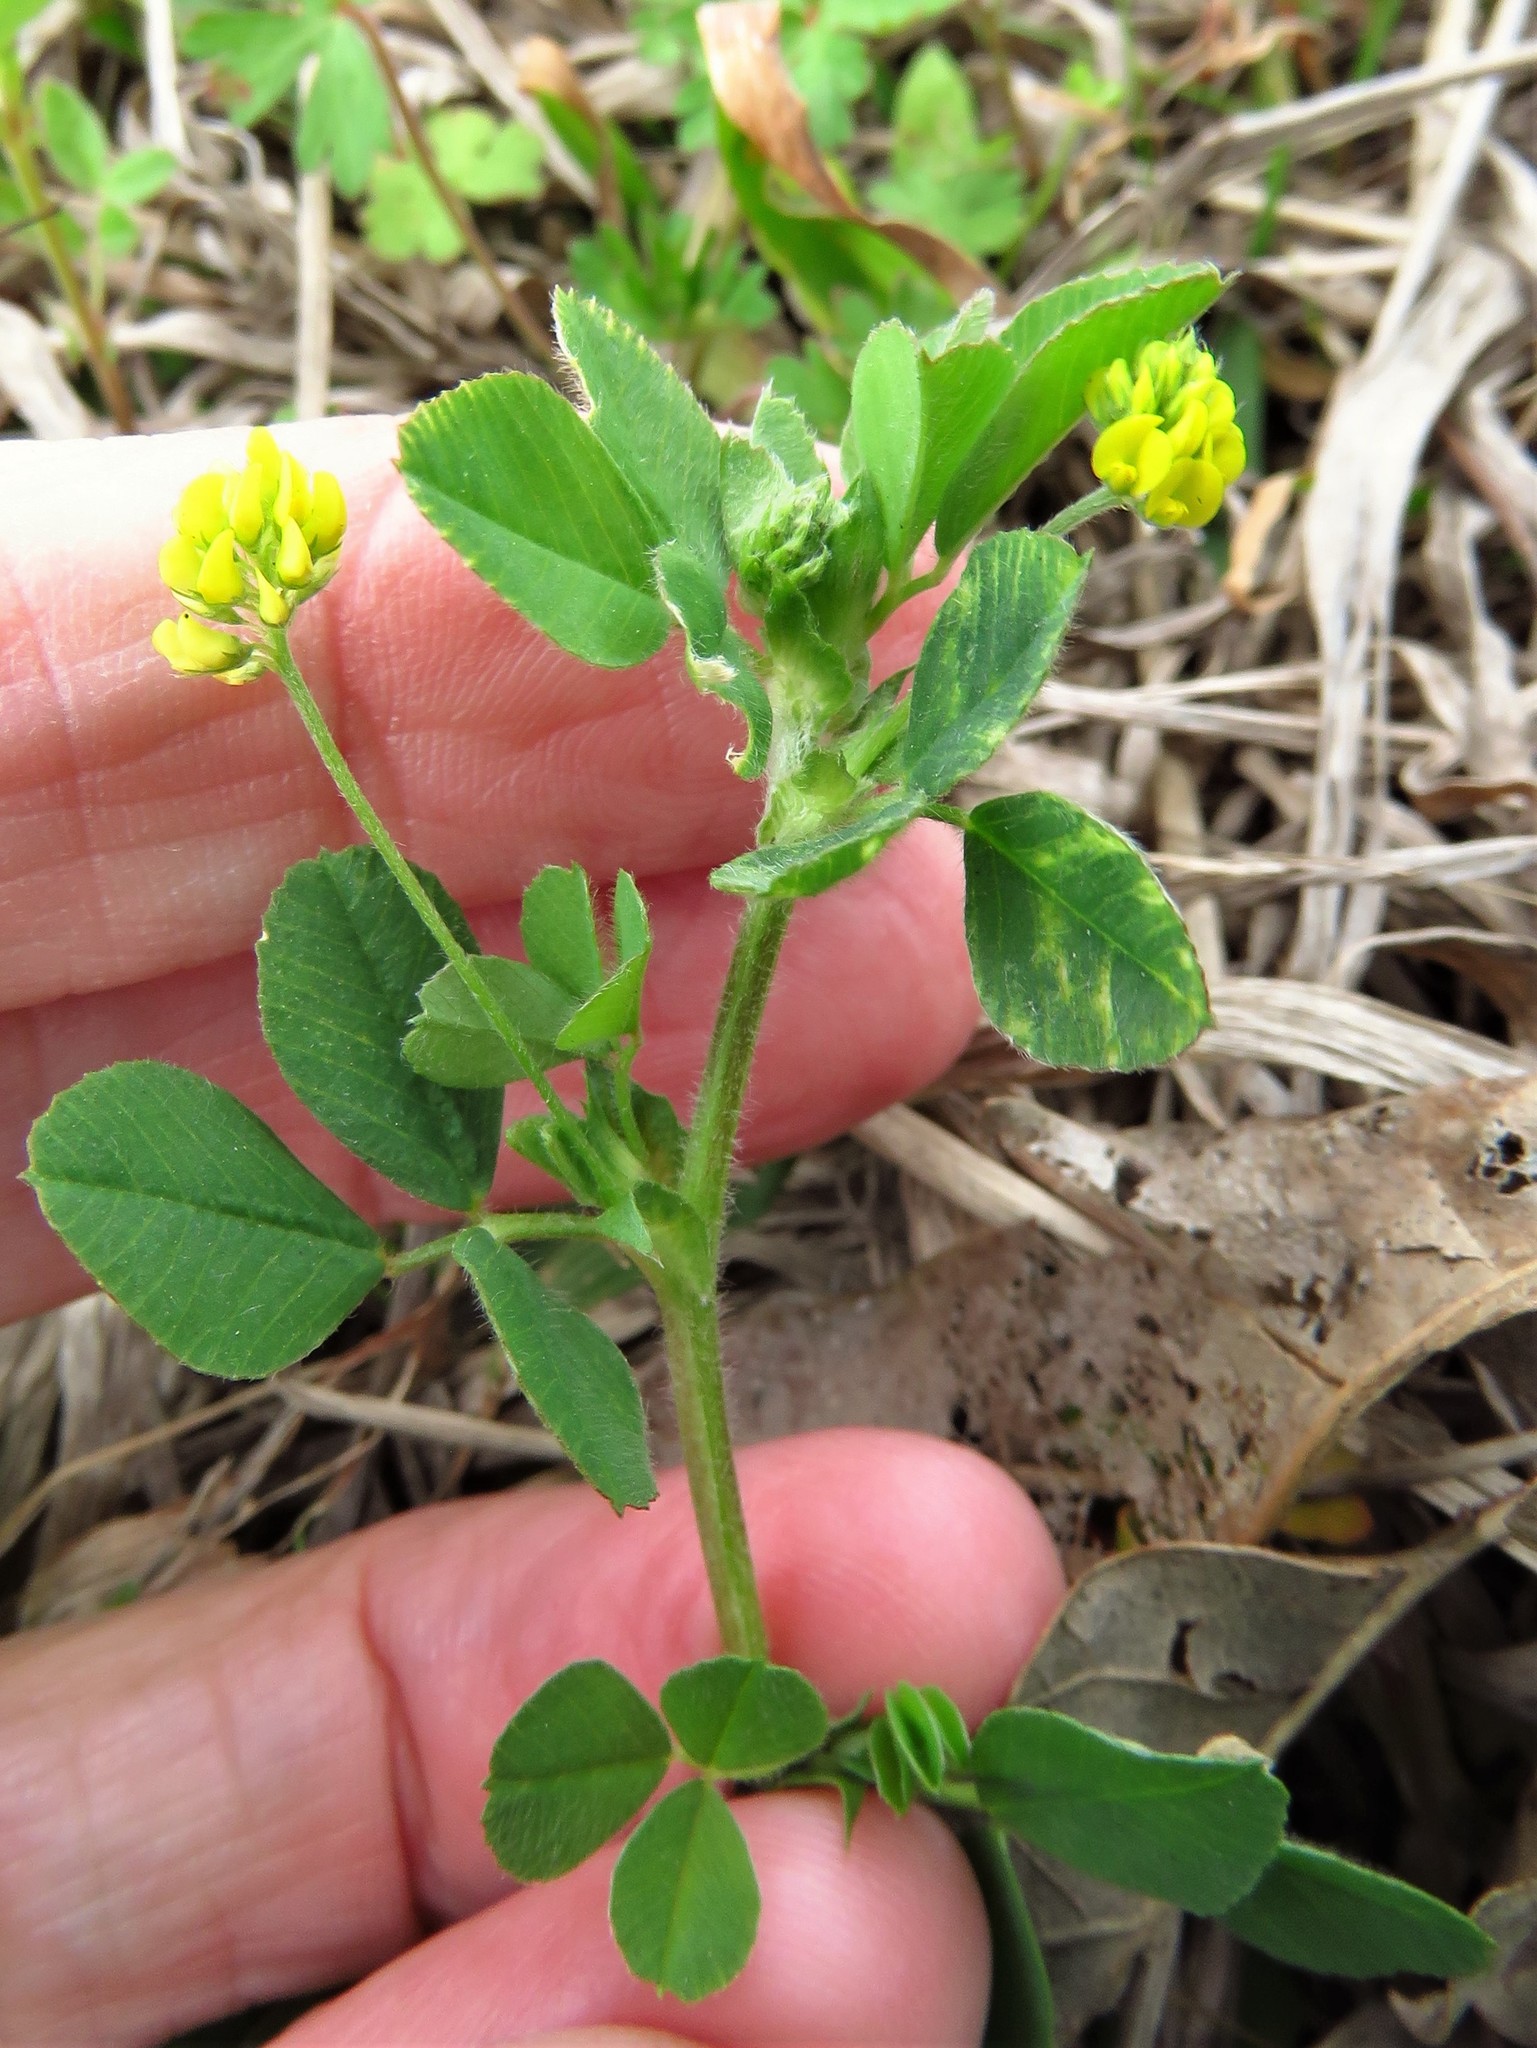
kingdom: Plantae
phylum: Tracheophyta
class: Magnoliopsida
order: Fabales
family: Fabaceae
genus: Medicago
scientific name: Medicago lupulina
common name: Black medick
